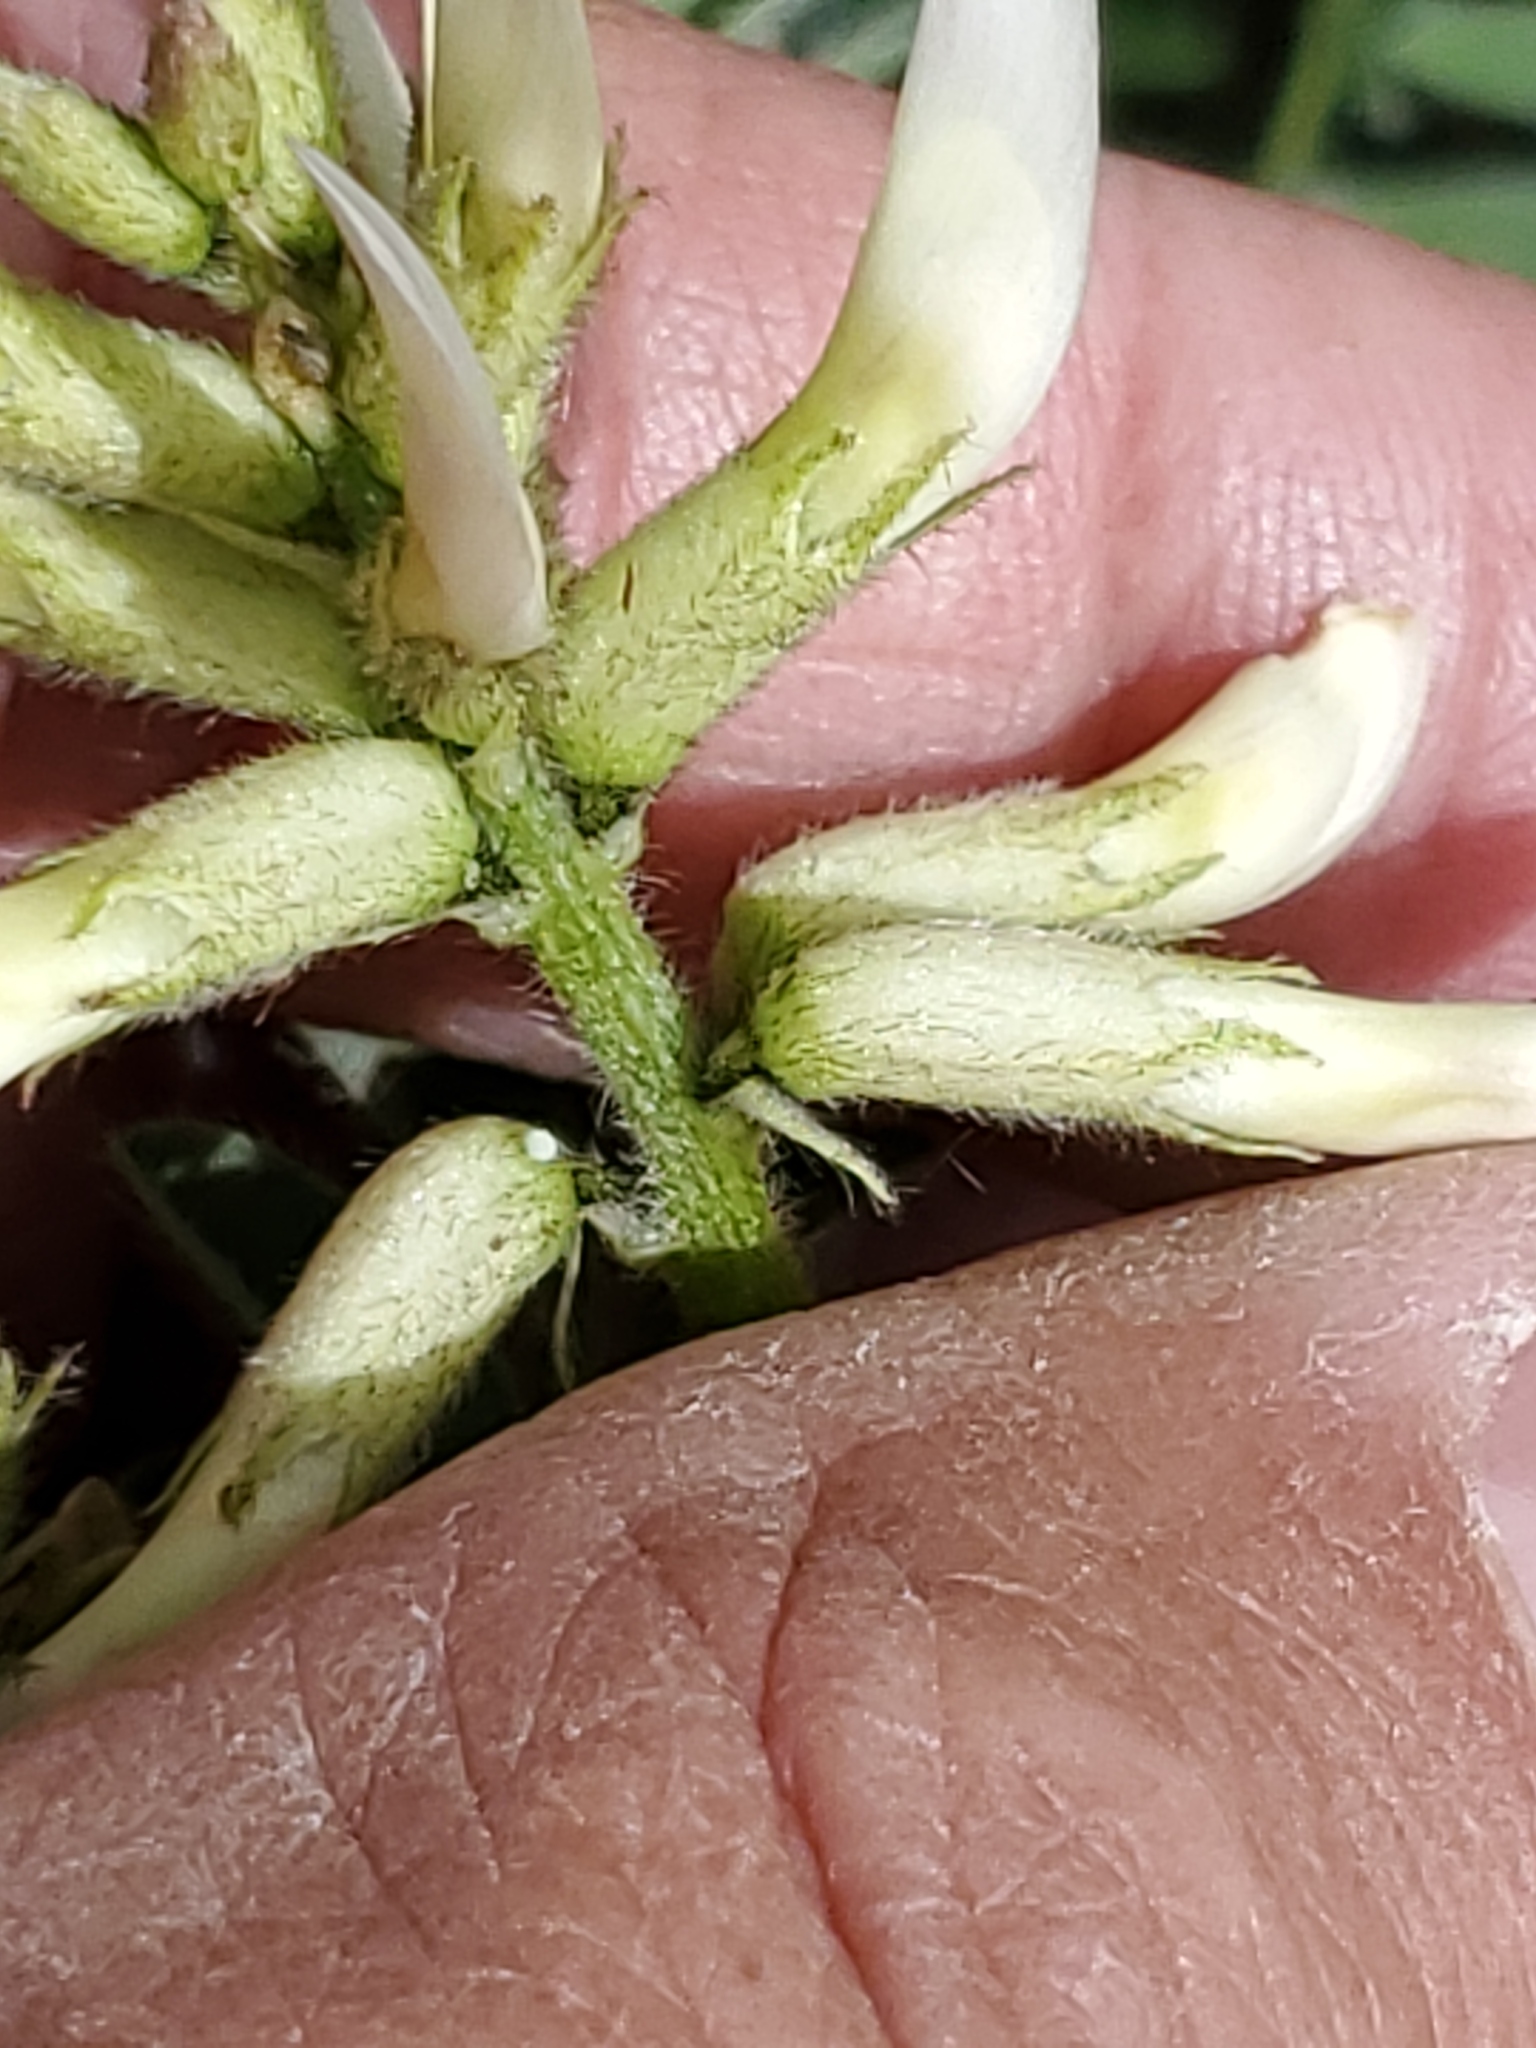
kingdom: Plantae
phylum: Tracheophyta
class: Magnoliopsida
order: Fabales
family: Fabaceae
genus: Astragalus
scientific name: Astragalus drummondii
